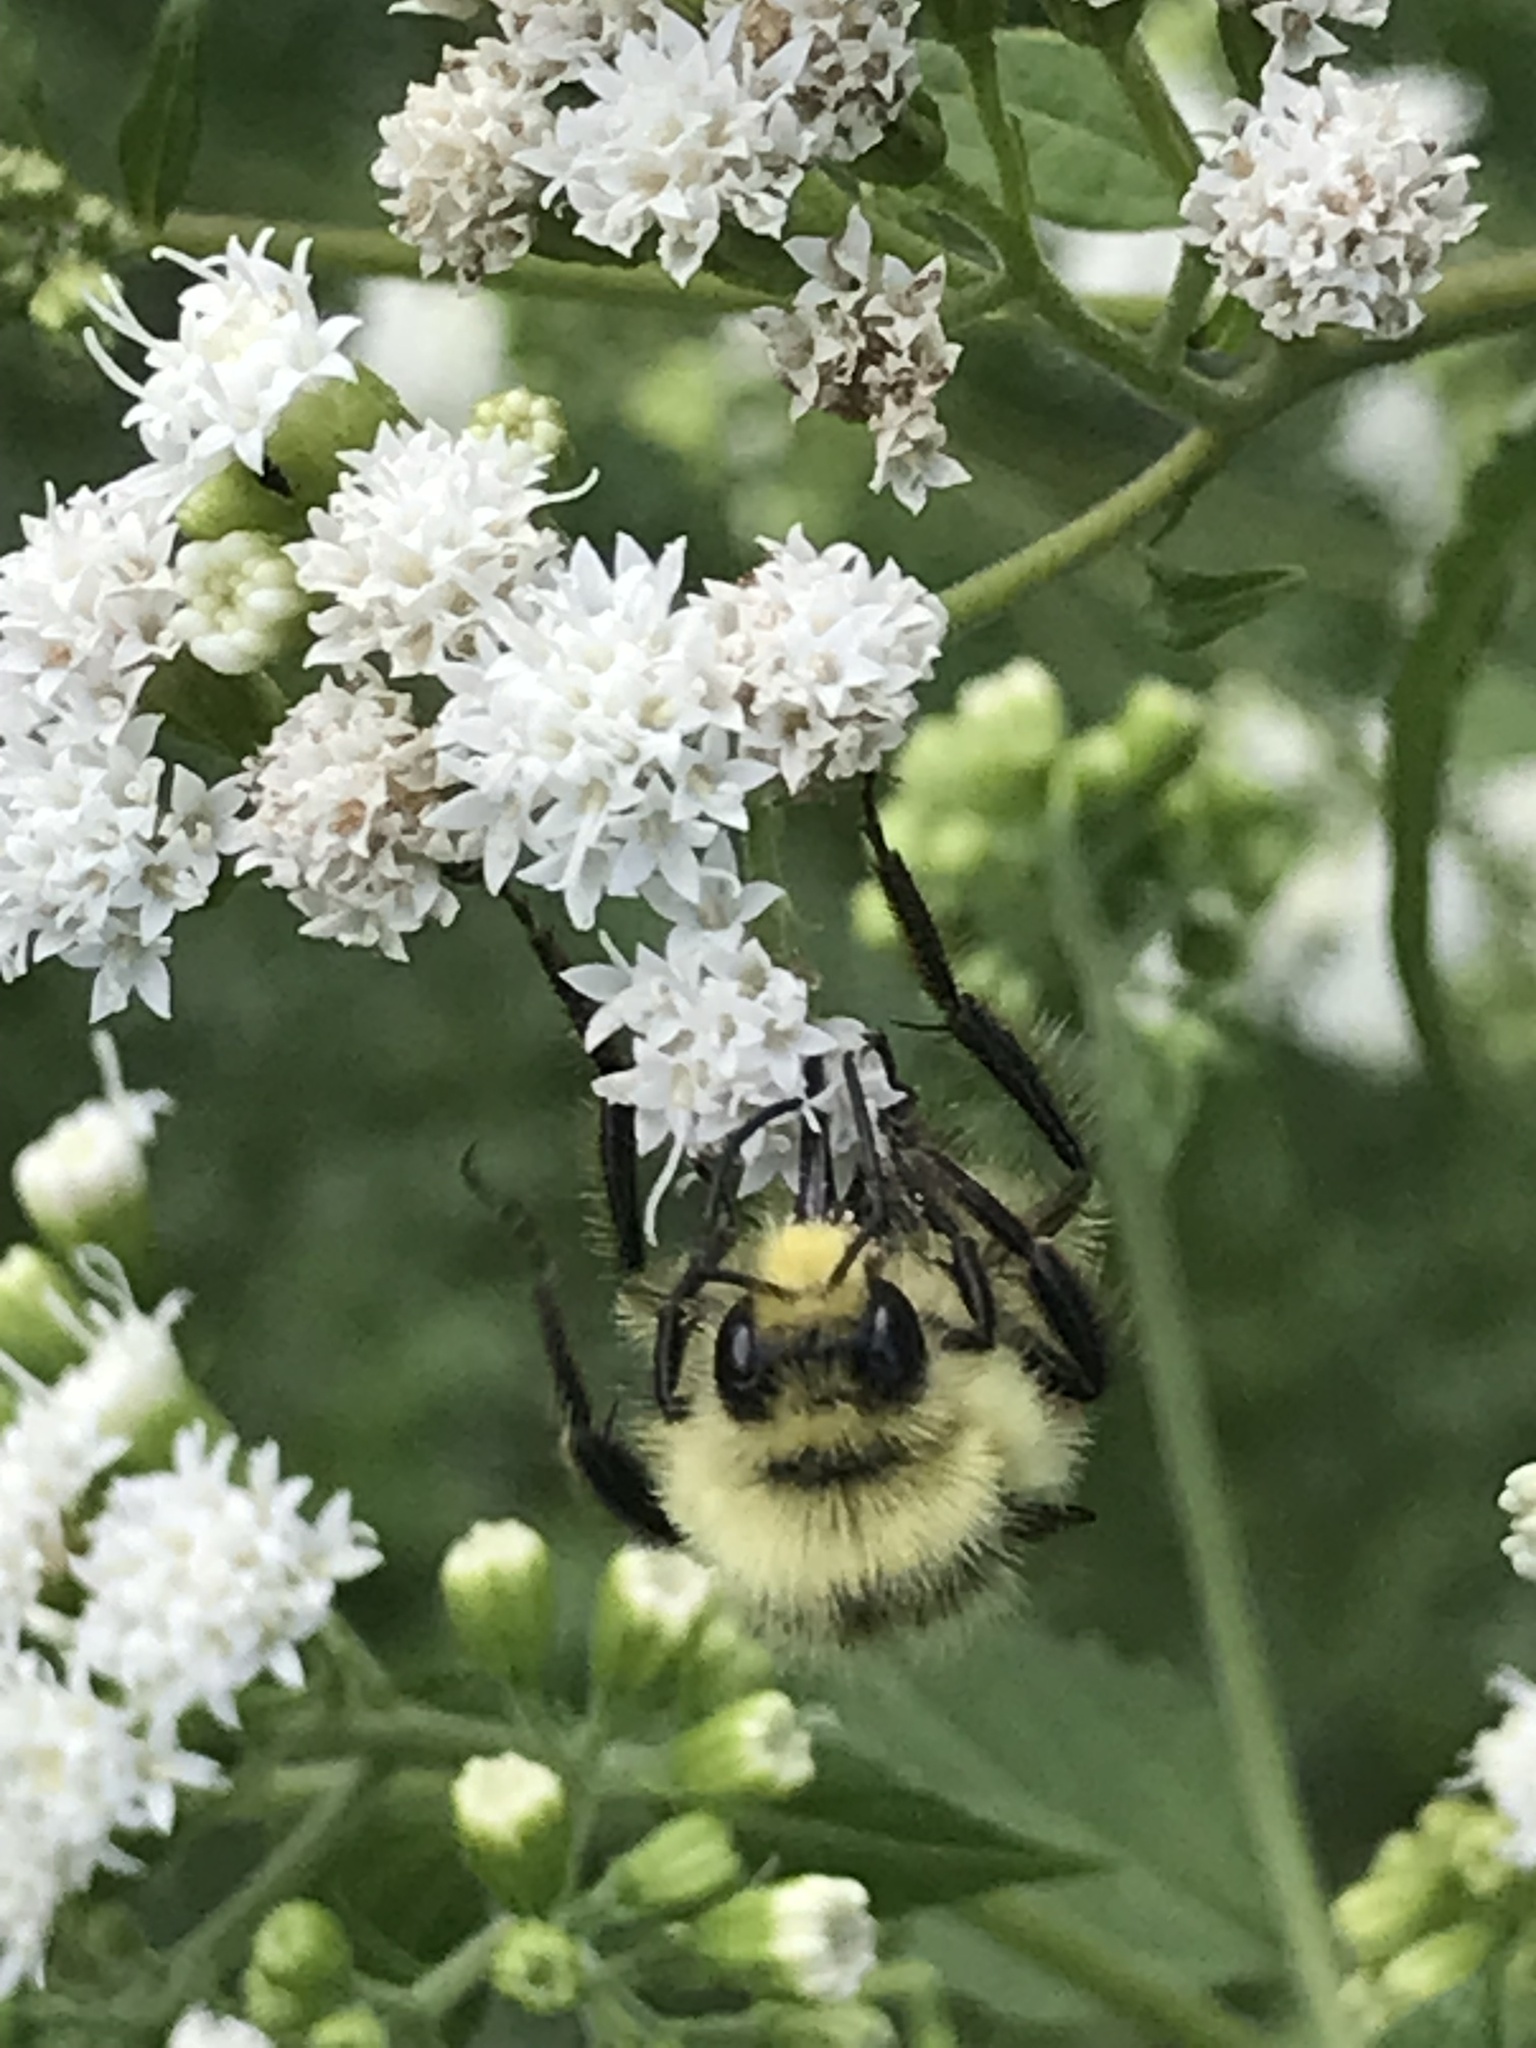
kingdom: Animalia
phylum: Arthropoda
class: Insecta
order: Hymenoptera
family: Apidae
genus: Bombus
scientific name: Bombus huntii
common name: Hunt bumble bee
